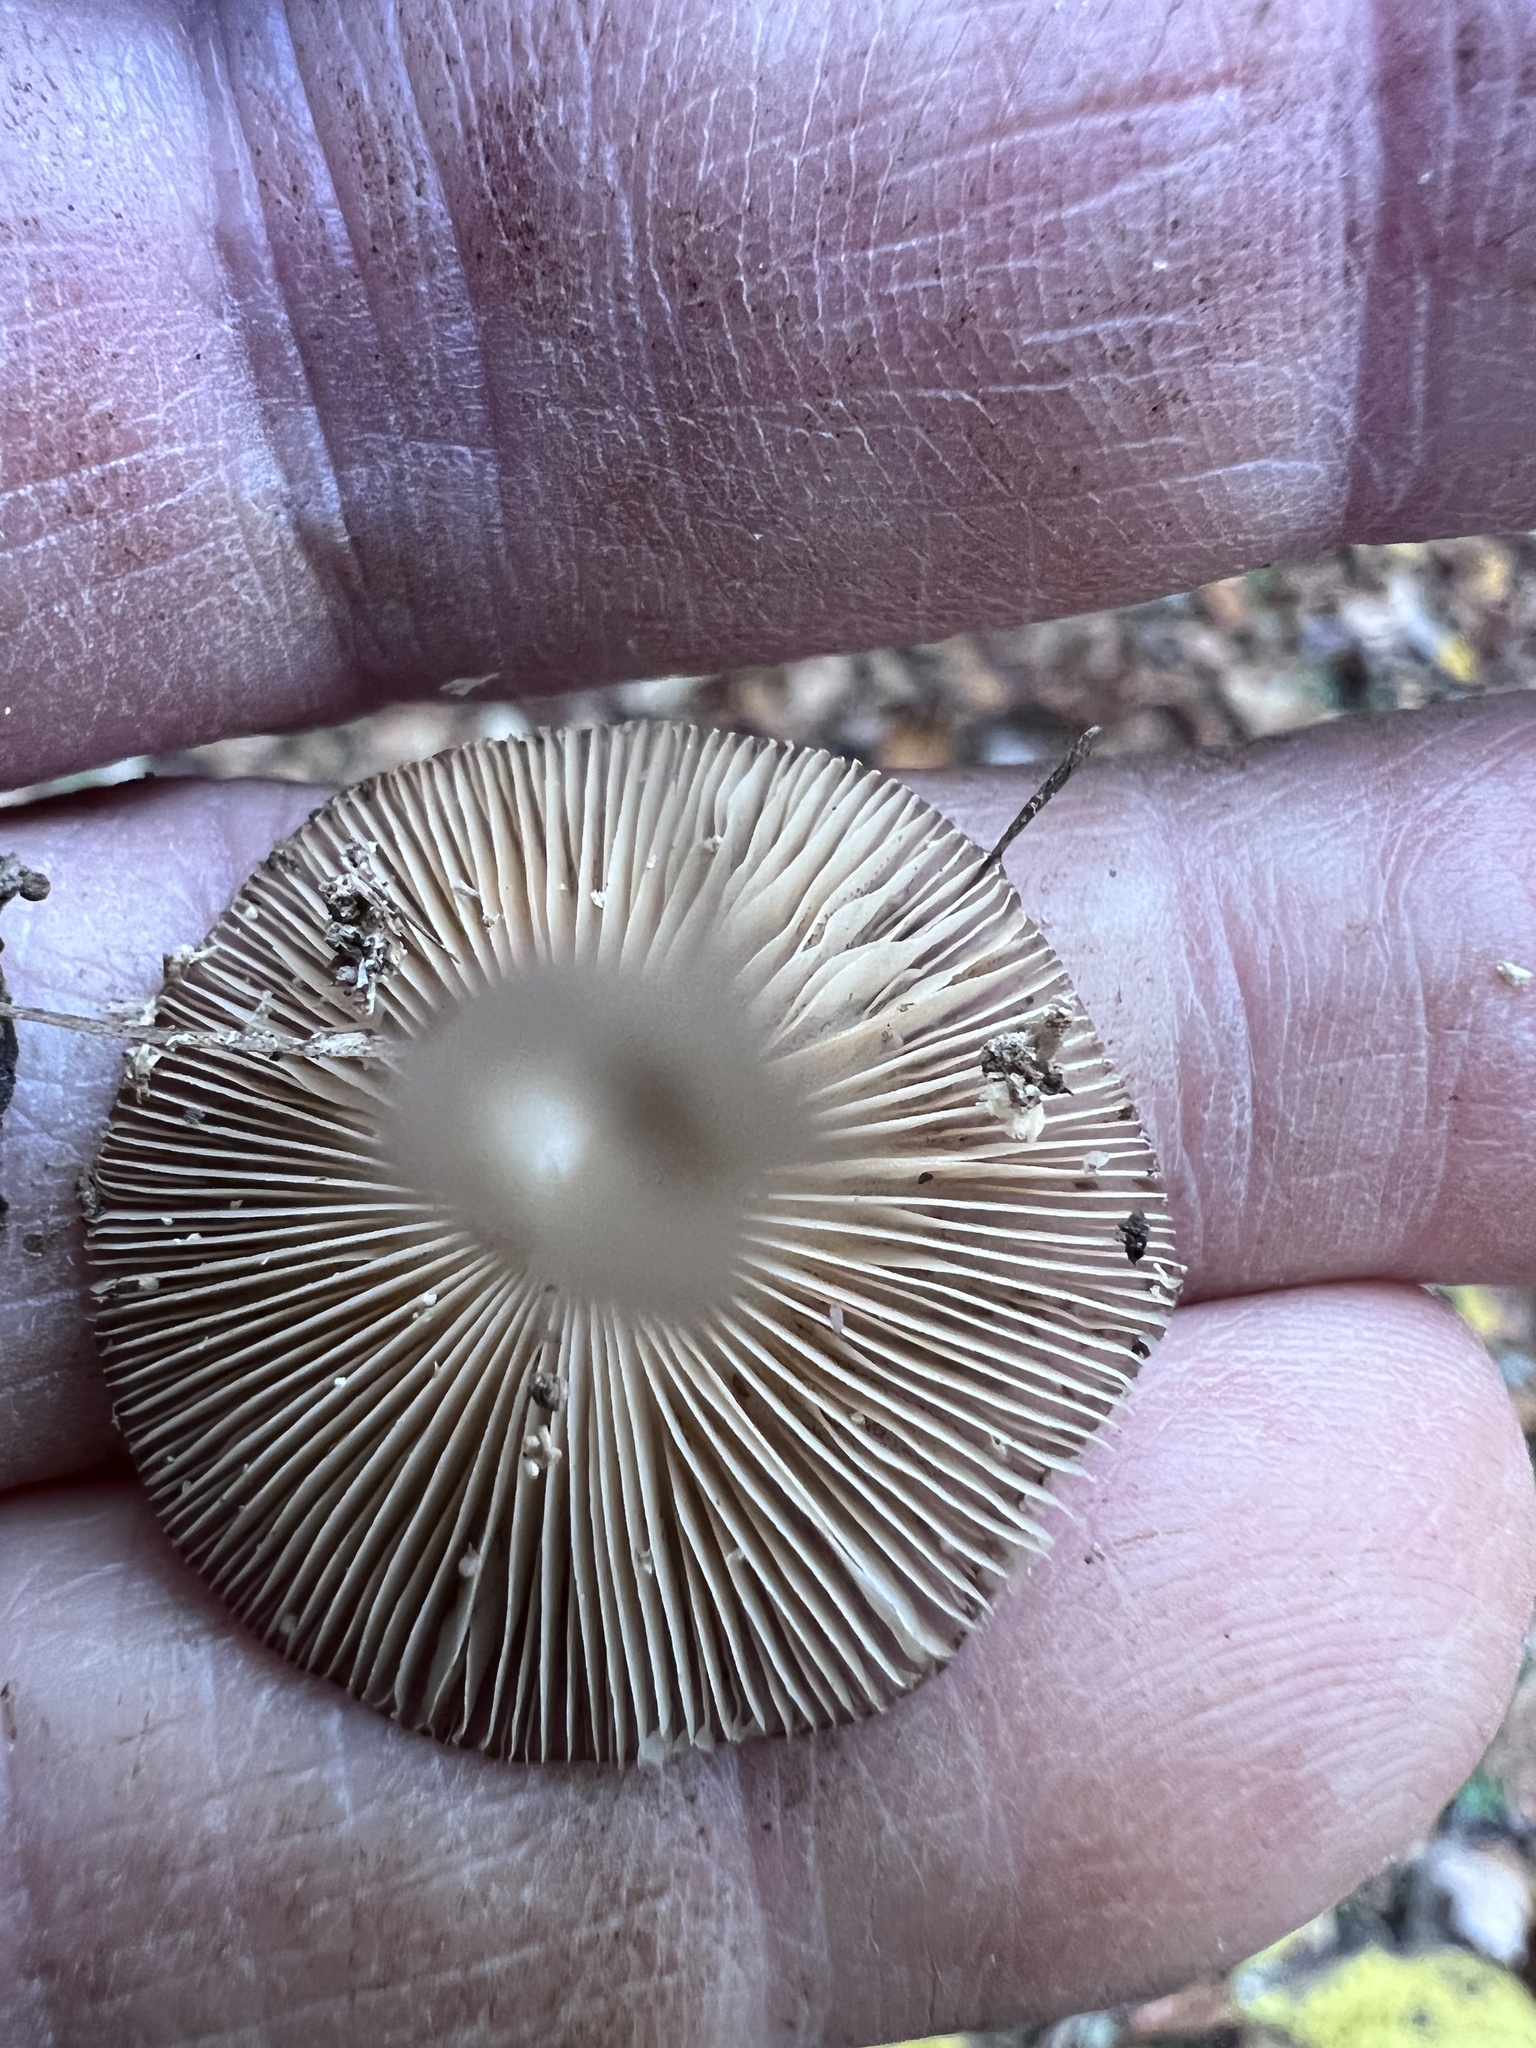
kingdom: Fungi
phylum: Basidiomycota
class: Agaricomycetes
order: Agaricales
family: Bolbitiaceae
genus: Bolbitius
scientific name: Bolbitius reticulatus
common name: Netted fieldcap
